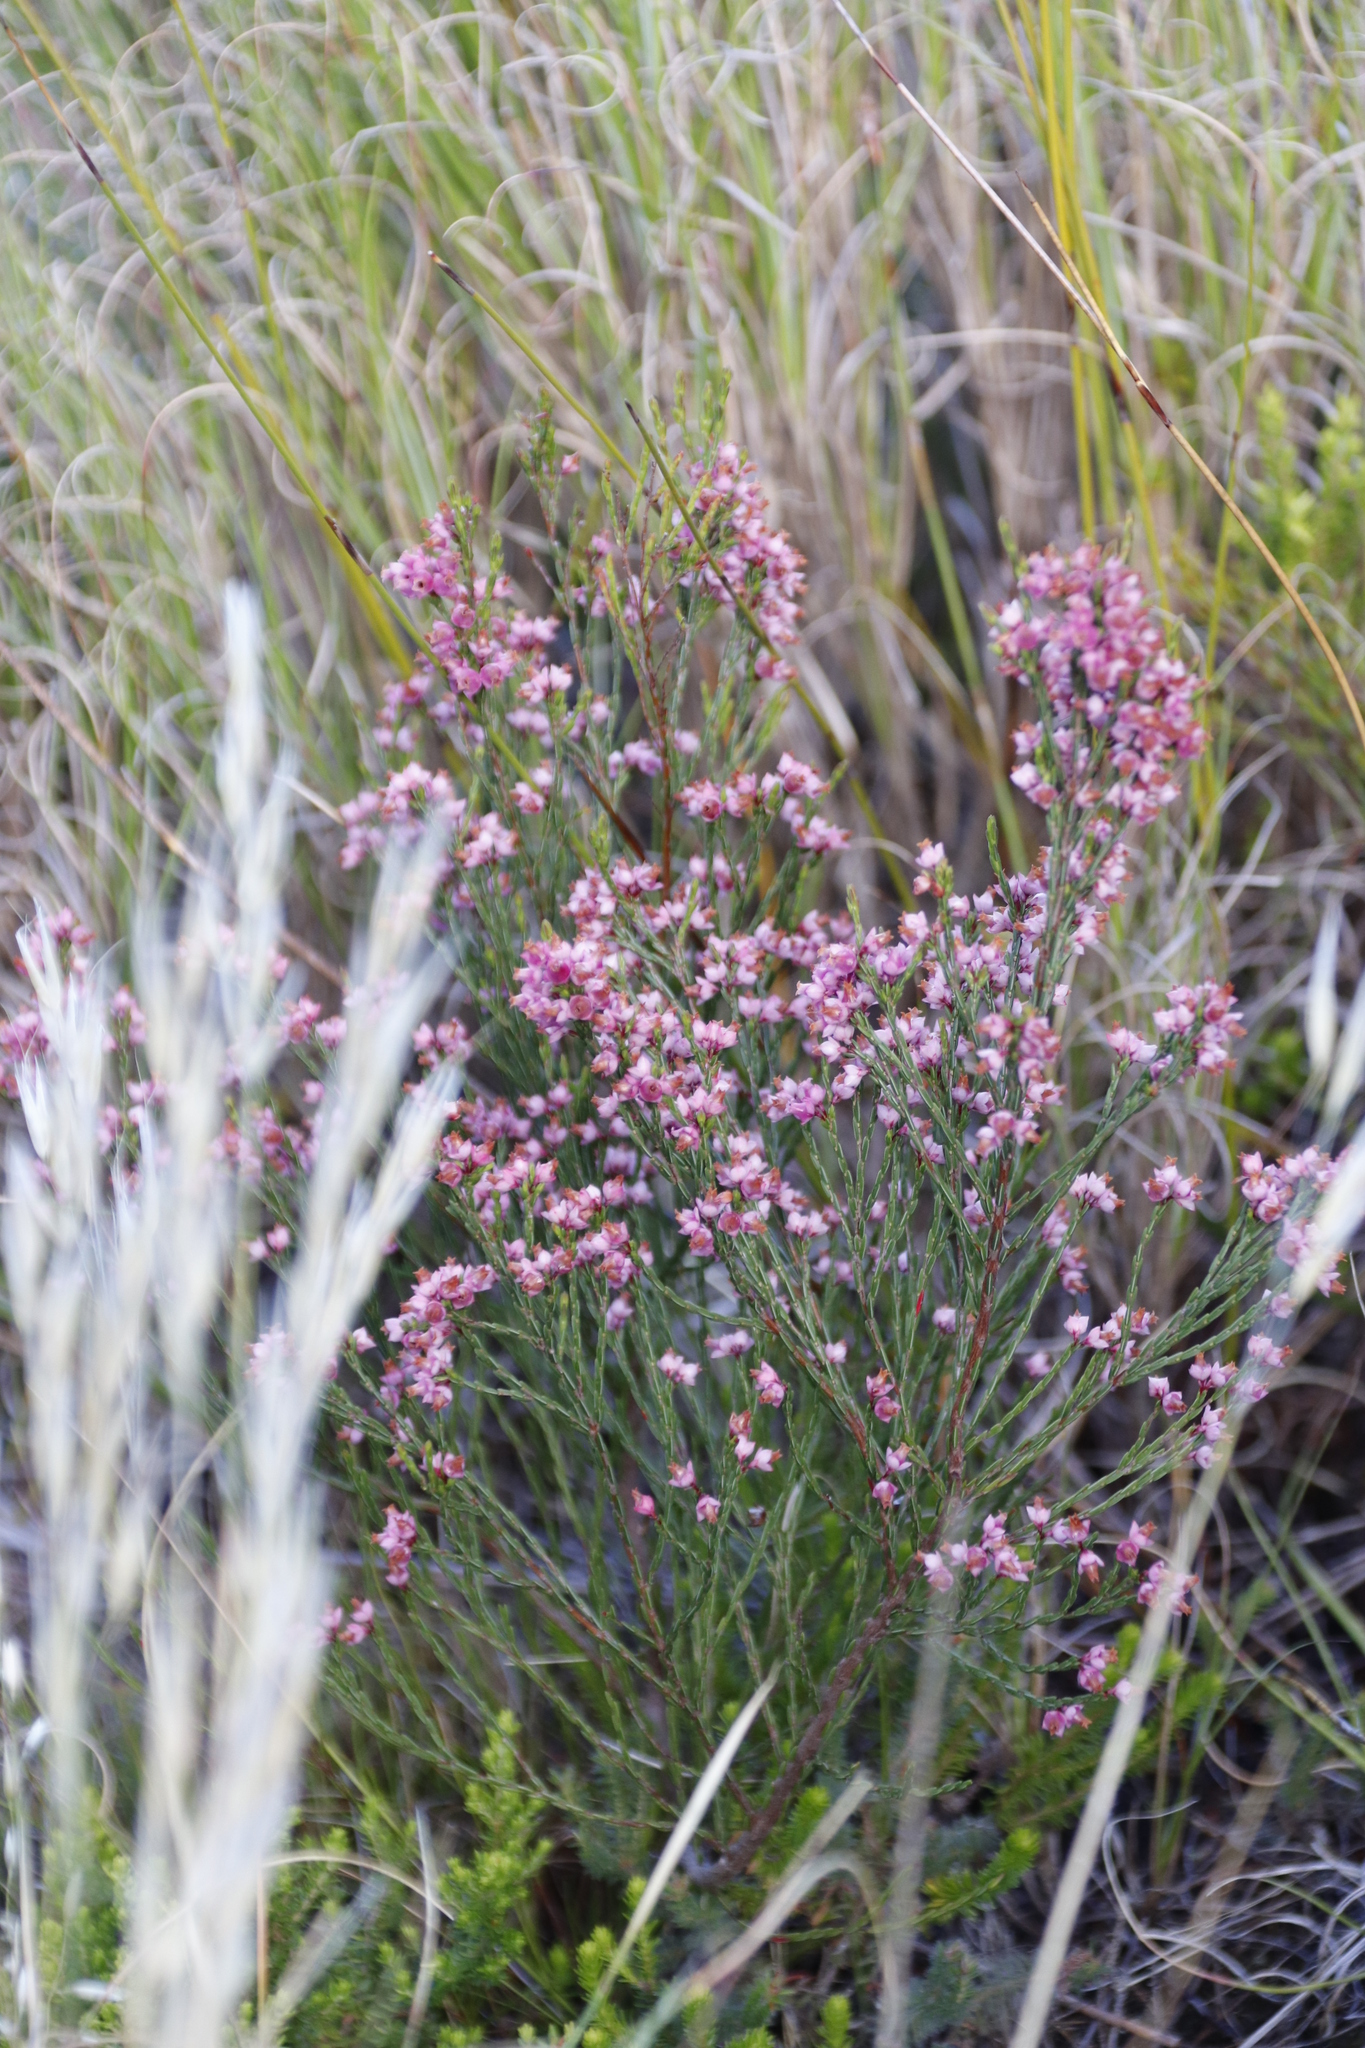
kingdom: Plantae
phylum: Tracheophyta
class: Magnoliopsida
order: Ericales
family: Ericaceae
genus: Erica
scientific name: Erica tenuifolia
